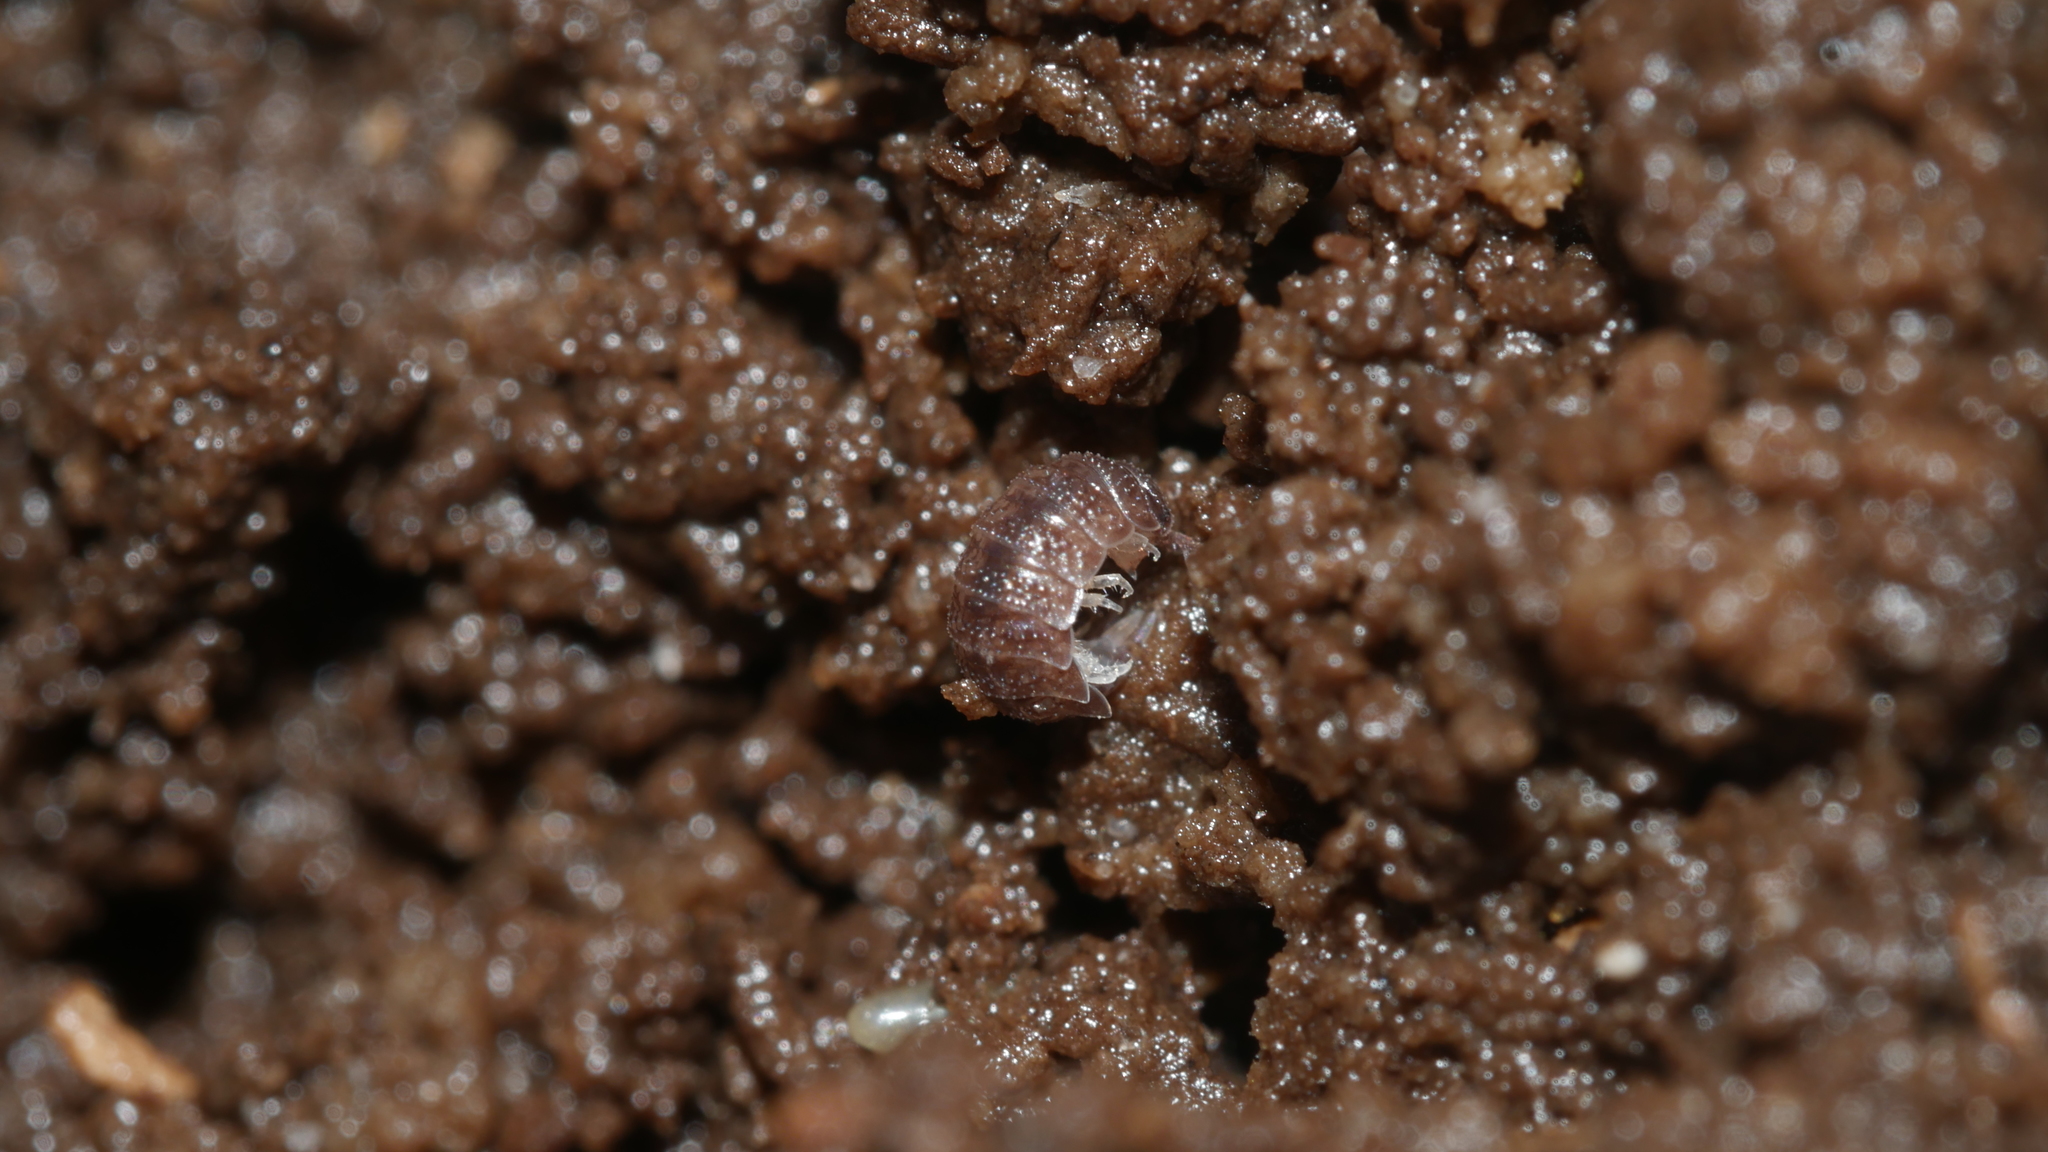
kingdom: Animalia
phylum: Arthropoda
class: Malacostraca
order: Isopoda
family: Trichoniscidae
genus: Miktoniscus
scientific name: Miktoniscus spinosus
